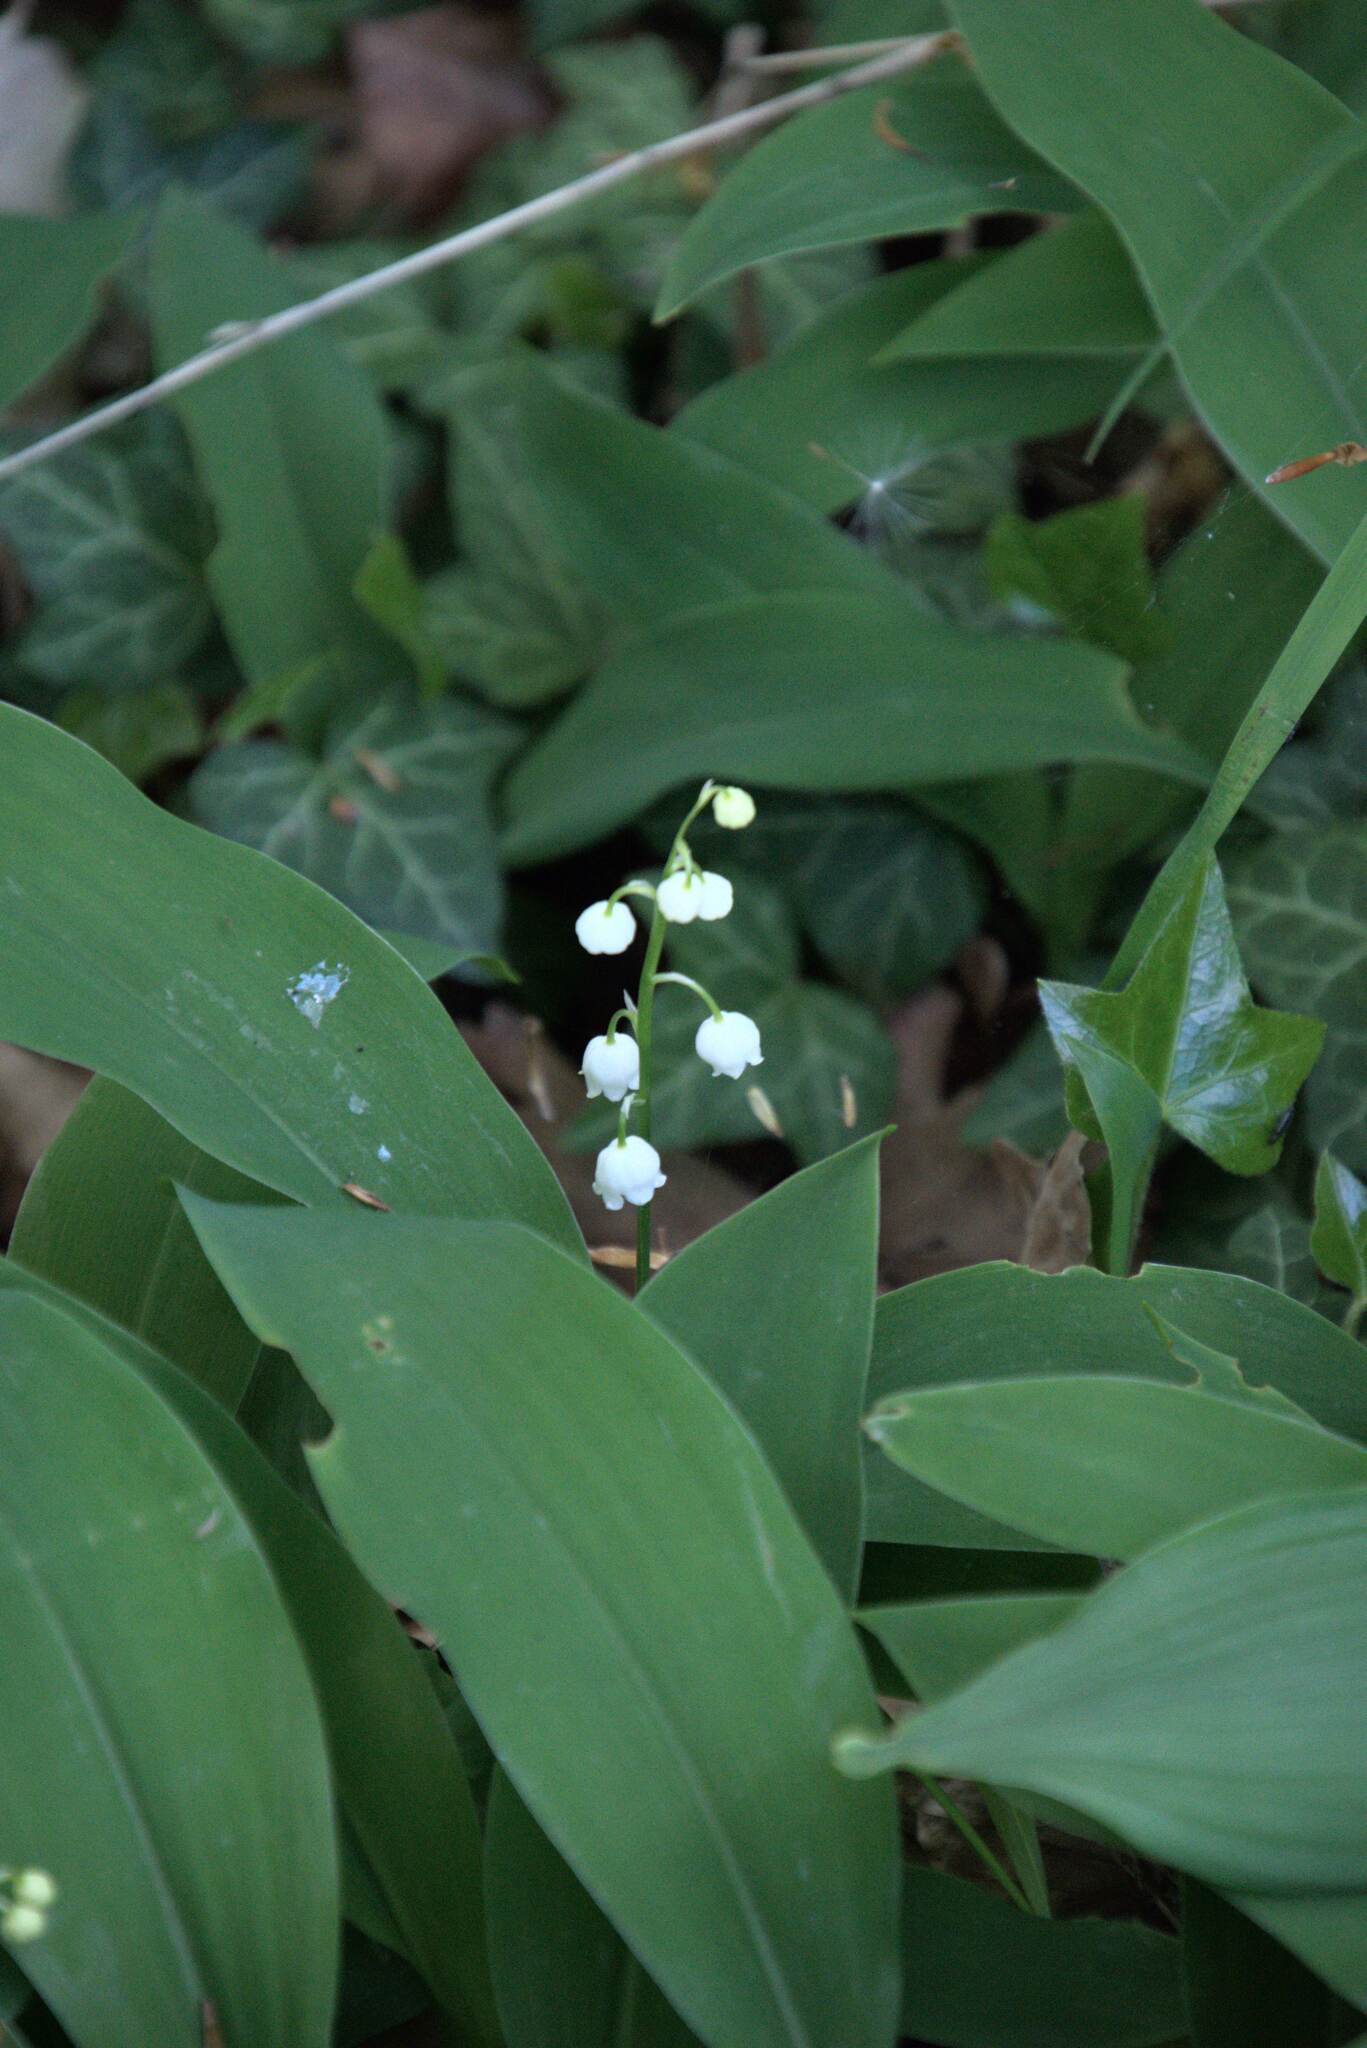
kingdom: Plantae
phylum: Tracheophyta
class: Liliopsida
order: Asparagales
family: Asparagaceae
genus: Convallaria
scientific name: Convallaria majalis
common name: Lily-of-the-valley
